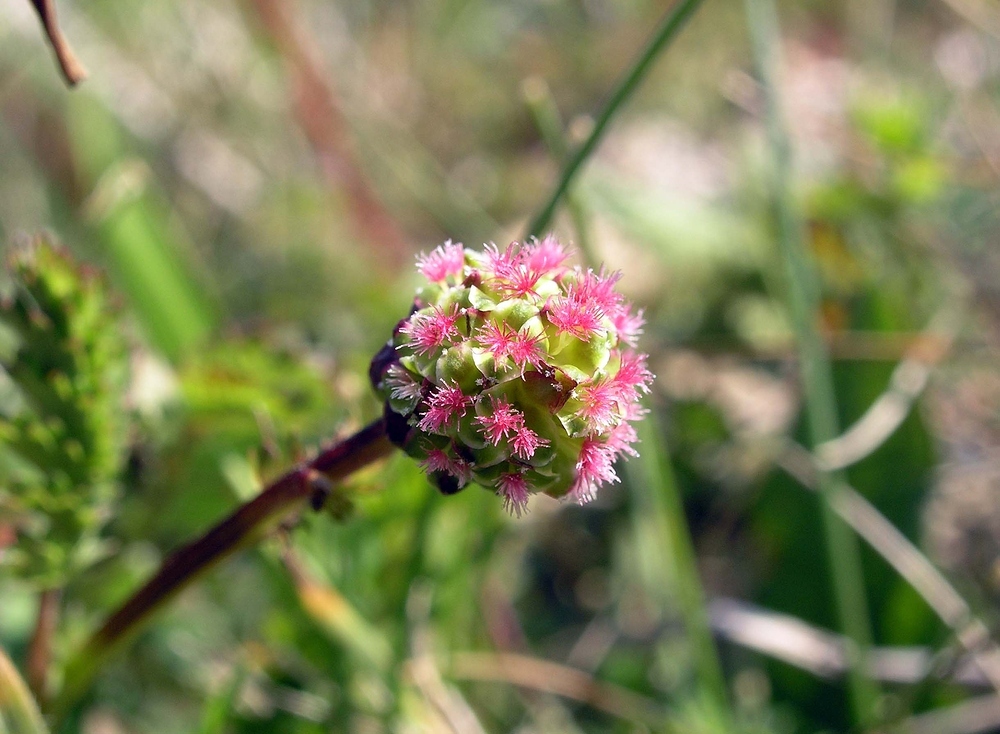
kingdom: Plantae
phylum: Tracheophyta
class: Magnoliopsida
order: Rosales
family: Rosaceae
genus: Poterium
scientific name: Poterium sanguisorba
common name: Salad burnet
